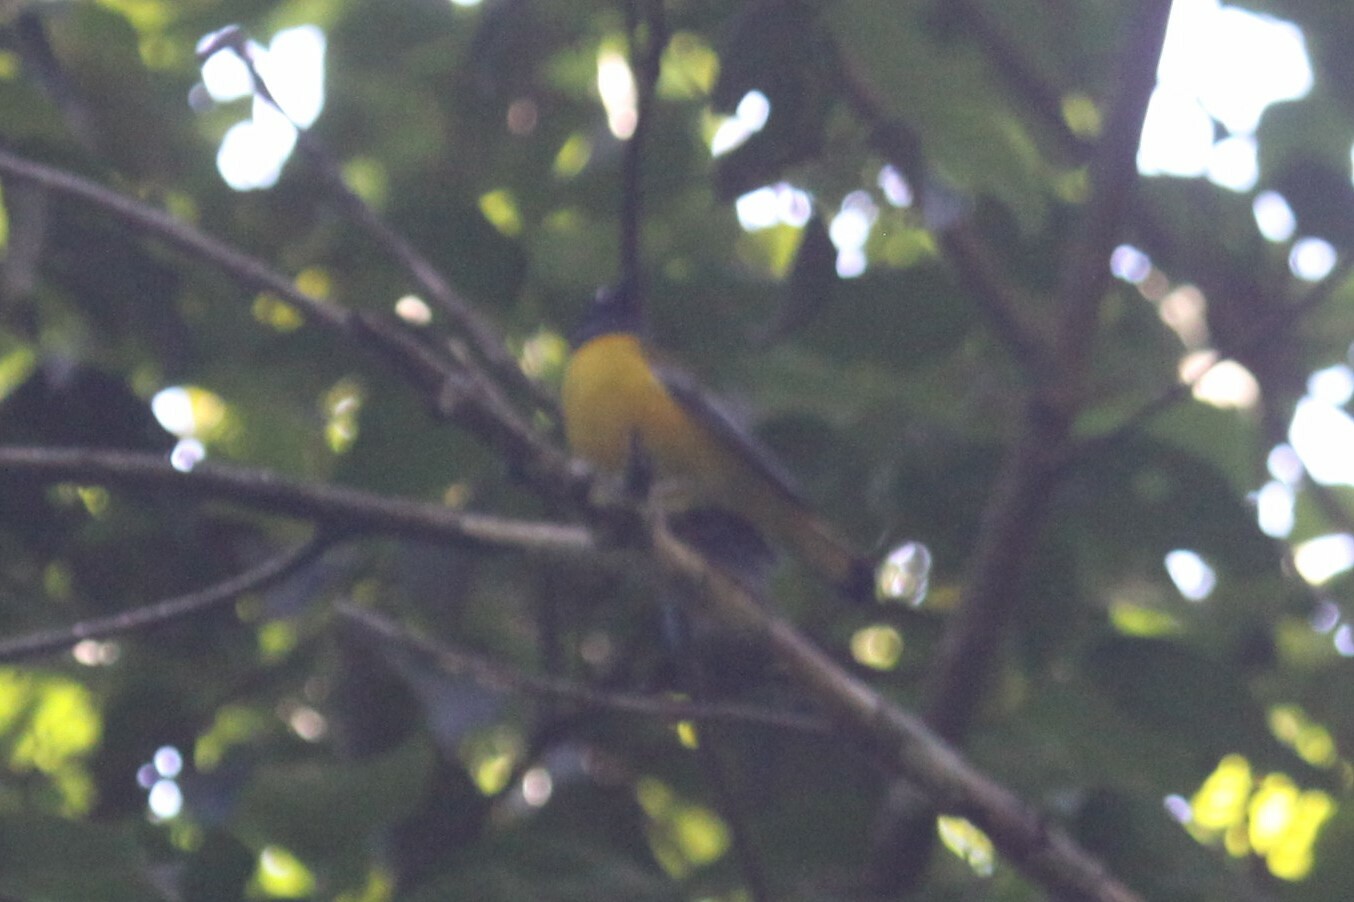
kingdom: Animalia
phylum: Chordata
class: Aves
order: Passeriformes
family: Muscicapidae
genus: Pogonocichla
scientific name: Pogonocichla stellata
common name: White-starred robin
